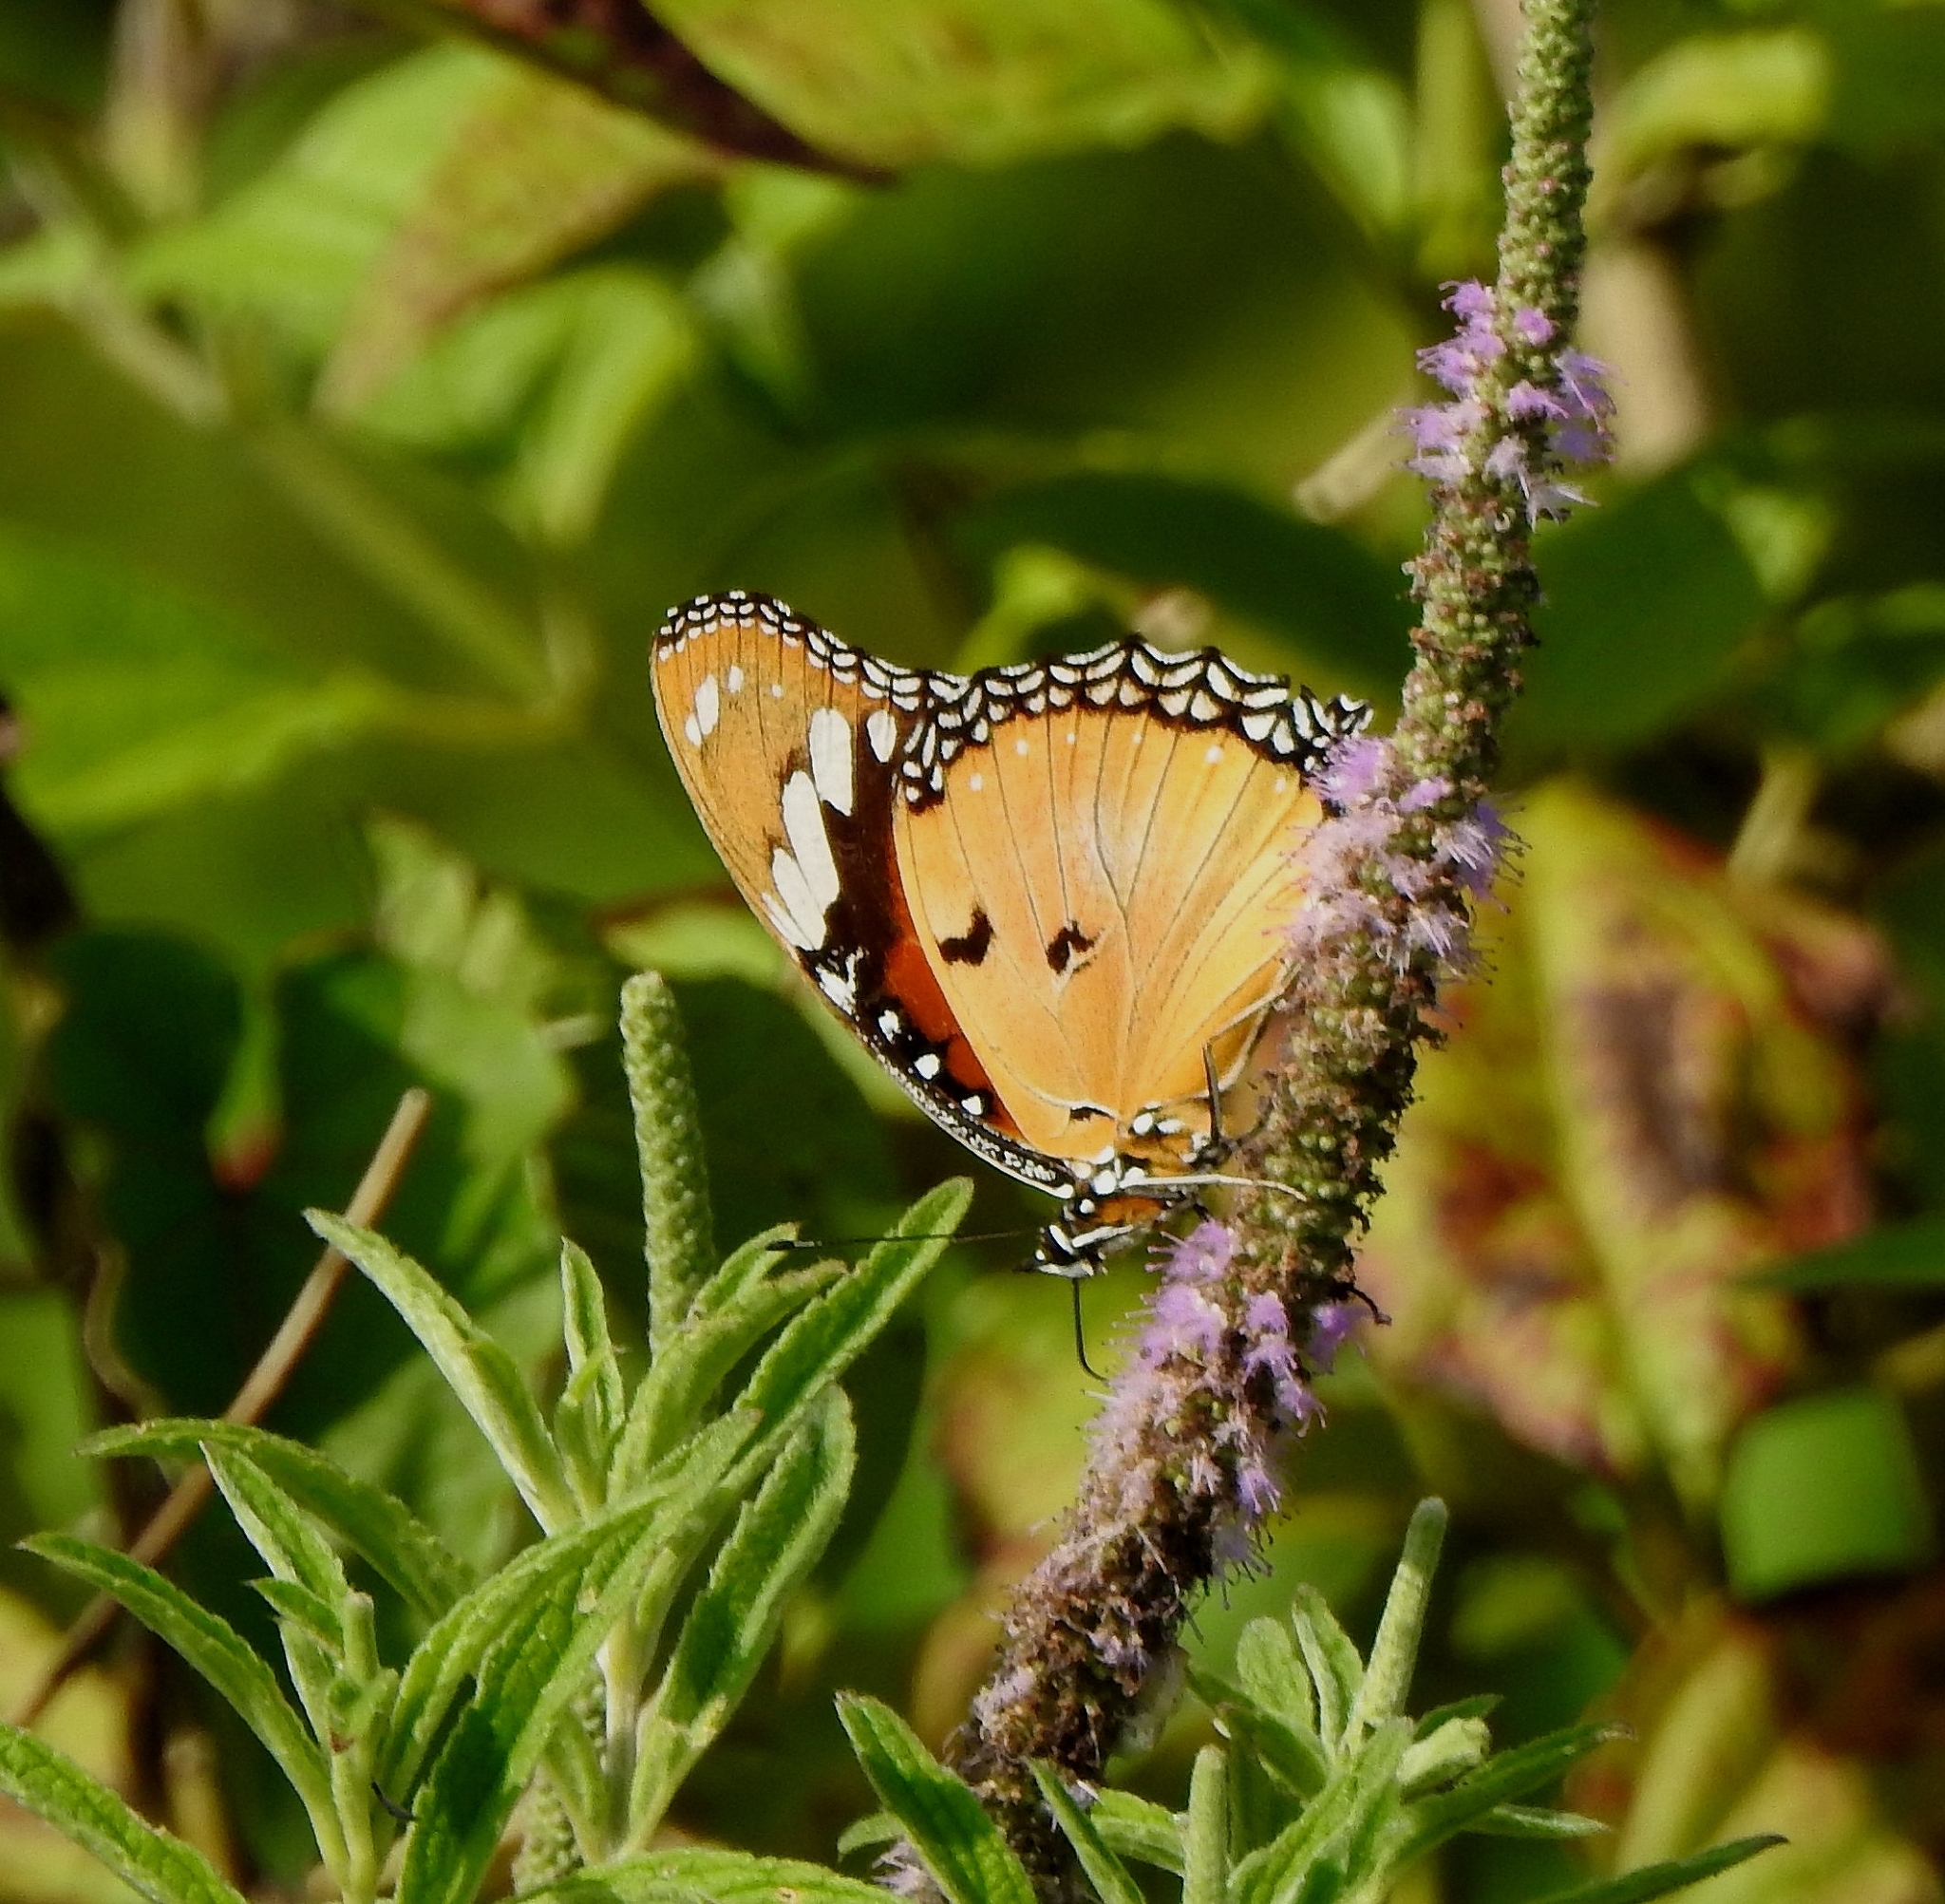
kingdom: Animalia
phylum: Arthropoda
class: Insecta
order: Lepidoptera
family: Nymphalidae
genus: Hypolimnas
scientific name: Hypolimnas misippus
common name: False plain tiger
